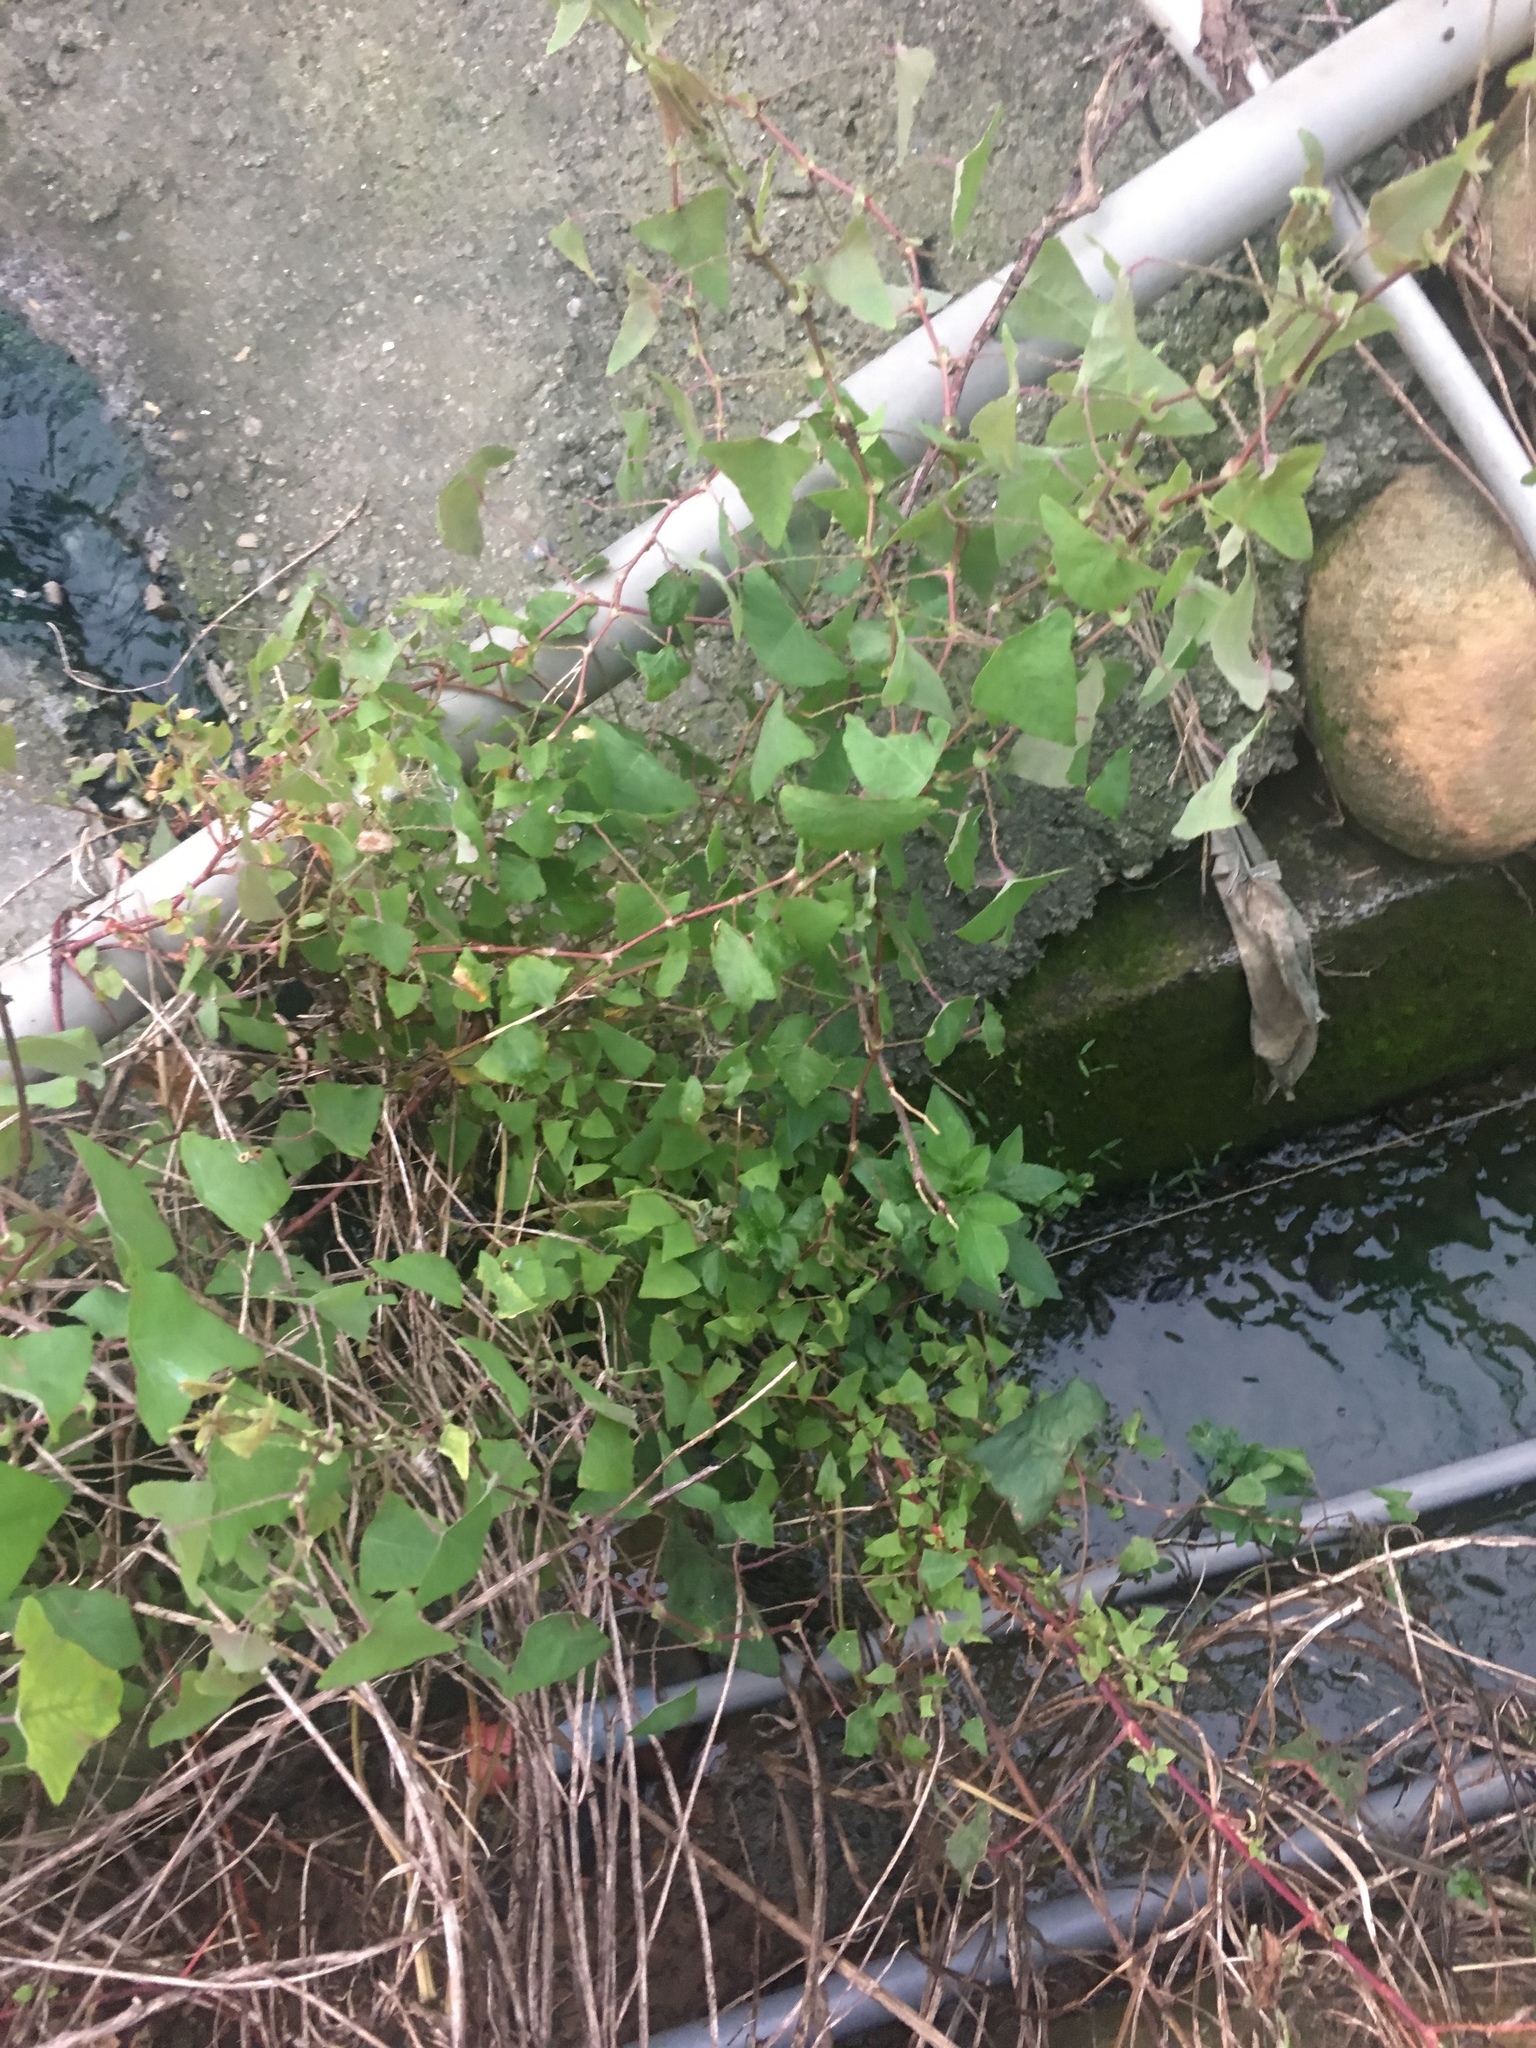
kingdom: Plantae
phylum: Tracheophyta
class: Magnoliopsida
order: Caryophyllales
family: Polygonaceae
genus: Persicaria
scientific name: Persicaria perfoliata
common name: Asiatic tearthumb
